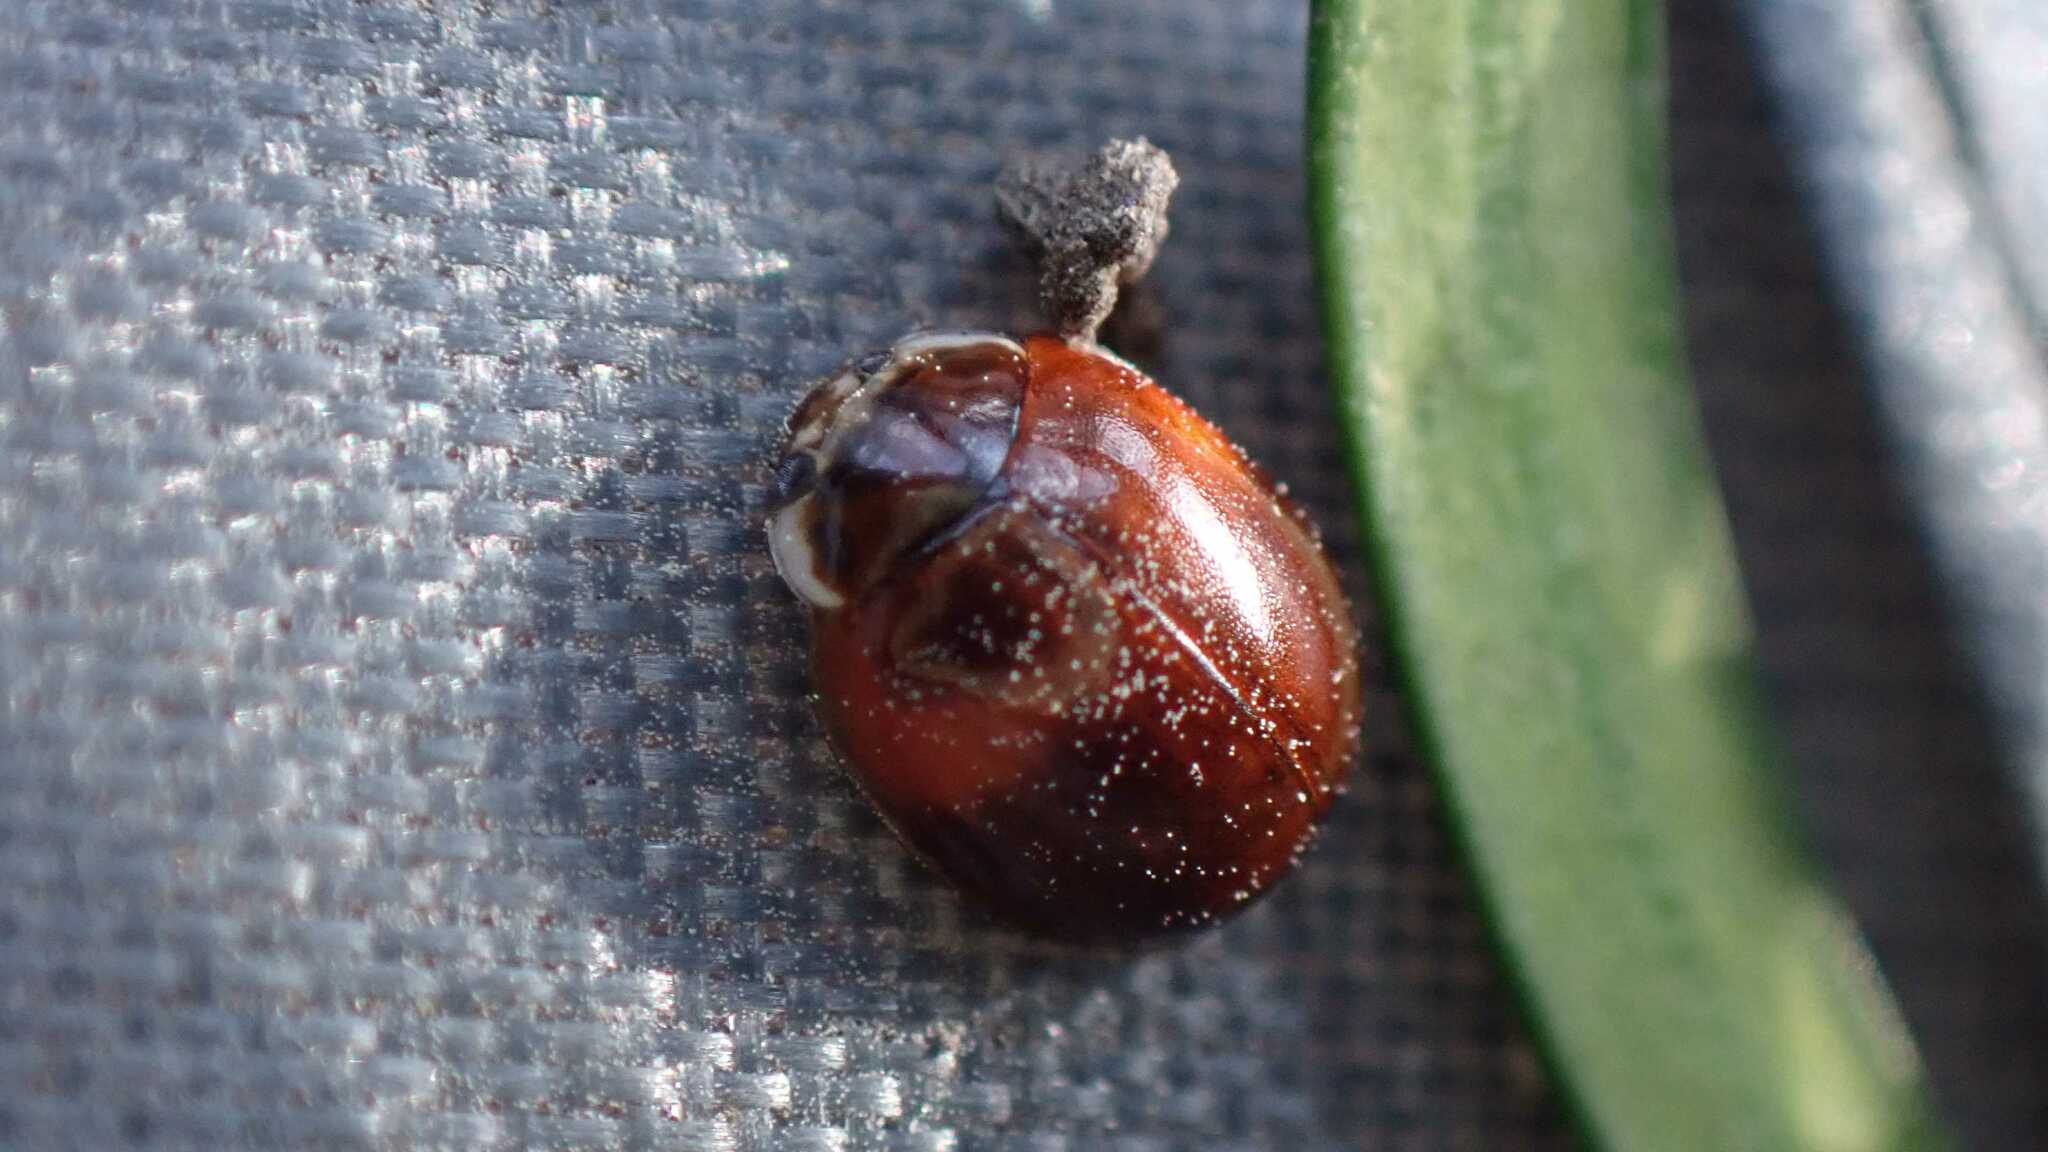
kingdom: Animalia
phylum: Arthropoda
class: Insecta
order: Coleoptera
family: Coccinellidae
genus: Adalia
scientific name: Adalia decempunctata
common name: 10-spot ladybird
